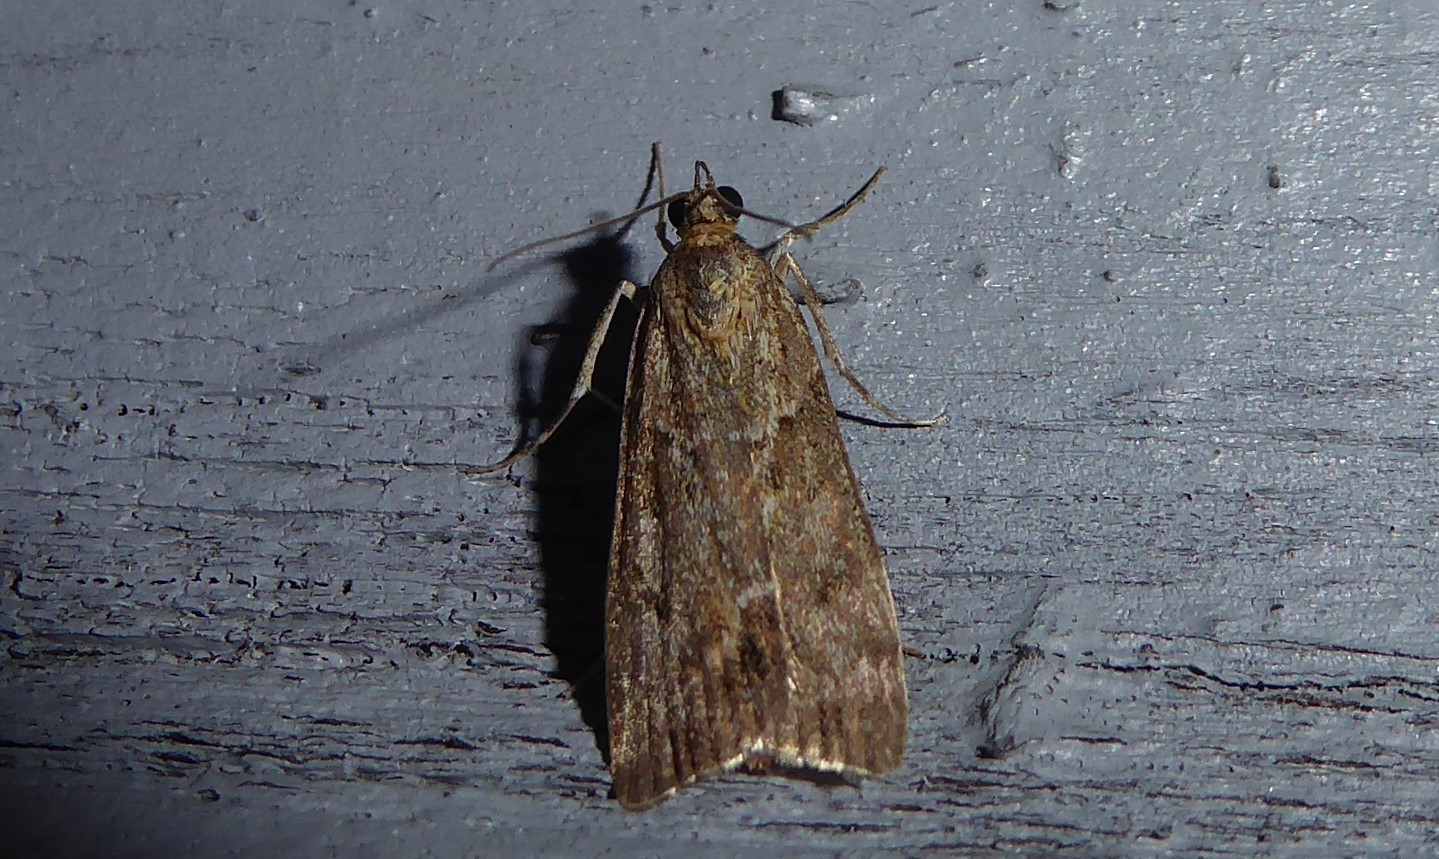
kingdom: Animalia
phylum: Arthropoda
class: Insecta
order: Lepidoptera
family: Crambidae
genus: Eudonia
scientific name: Eudonia submarginalis
